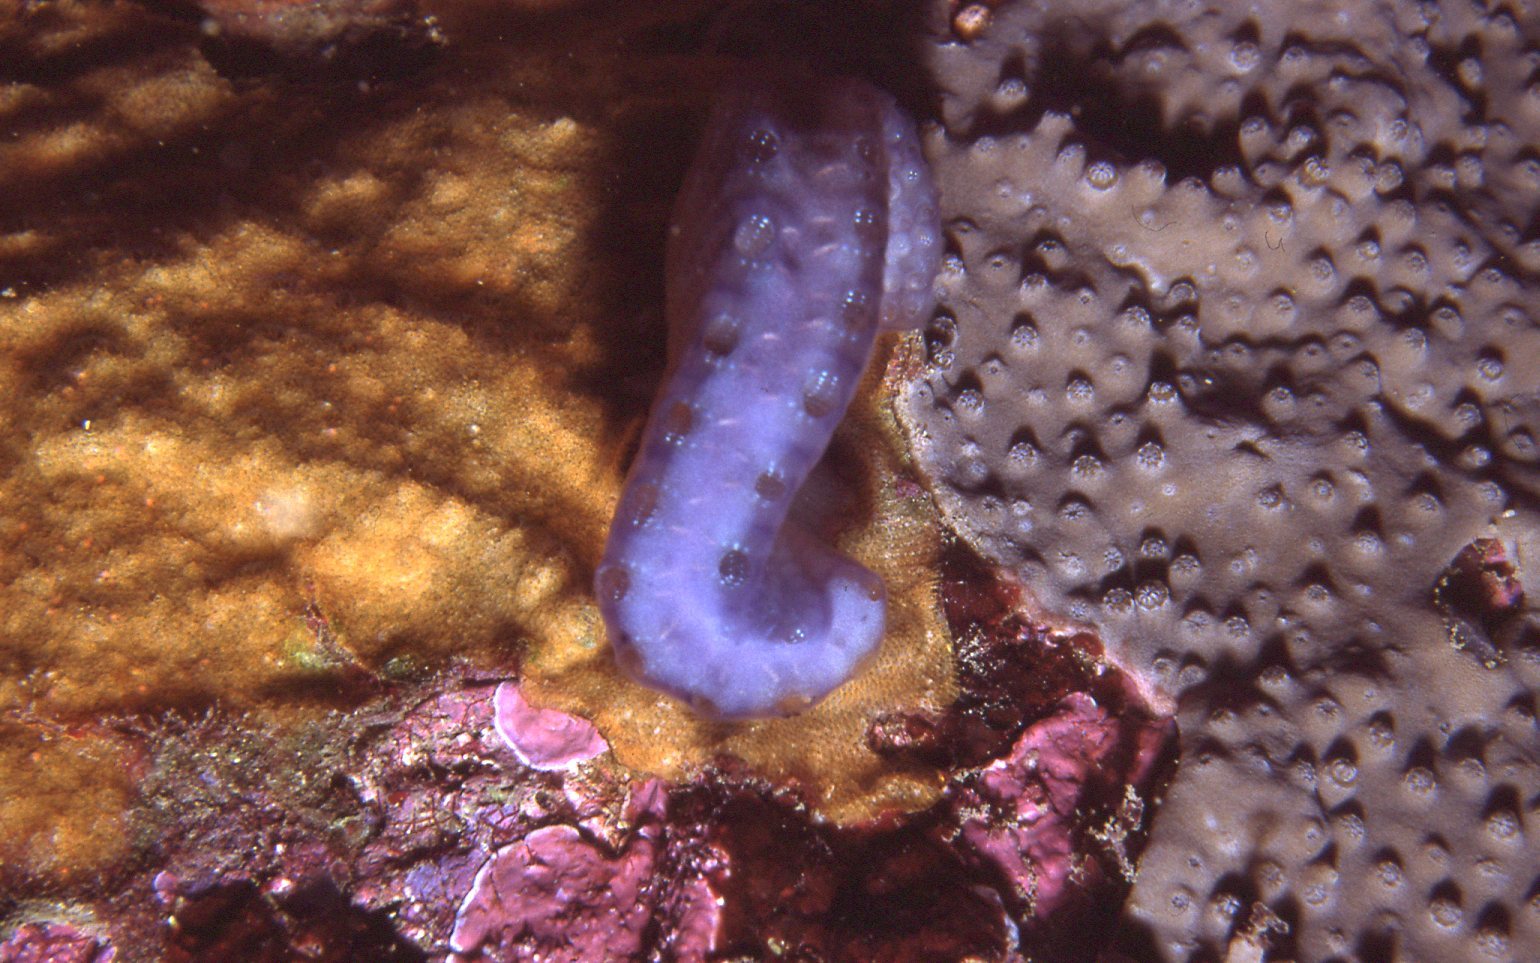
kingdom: Animalia
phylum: Chordata
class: Ascidiacea
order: Aplousobranchia
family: Holozoidae
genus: Sycozoa
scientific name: Sycozoa cerebriformis
